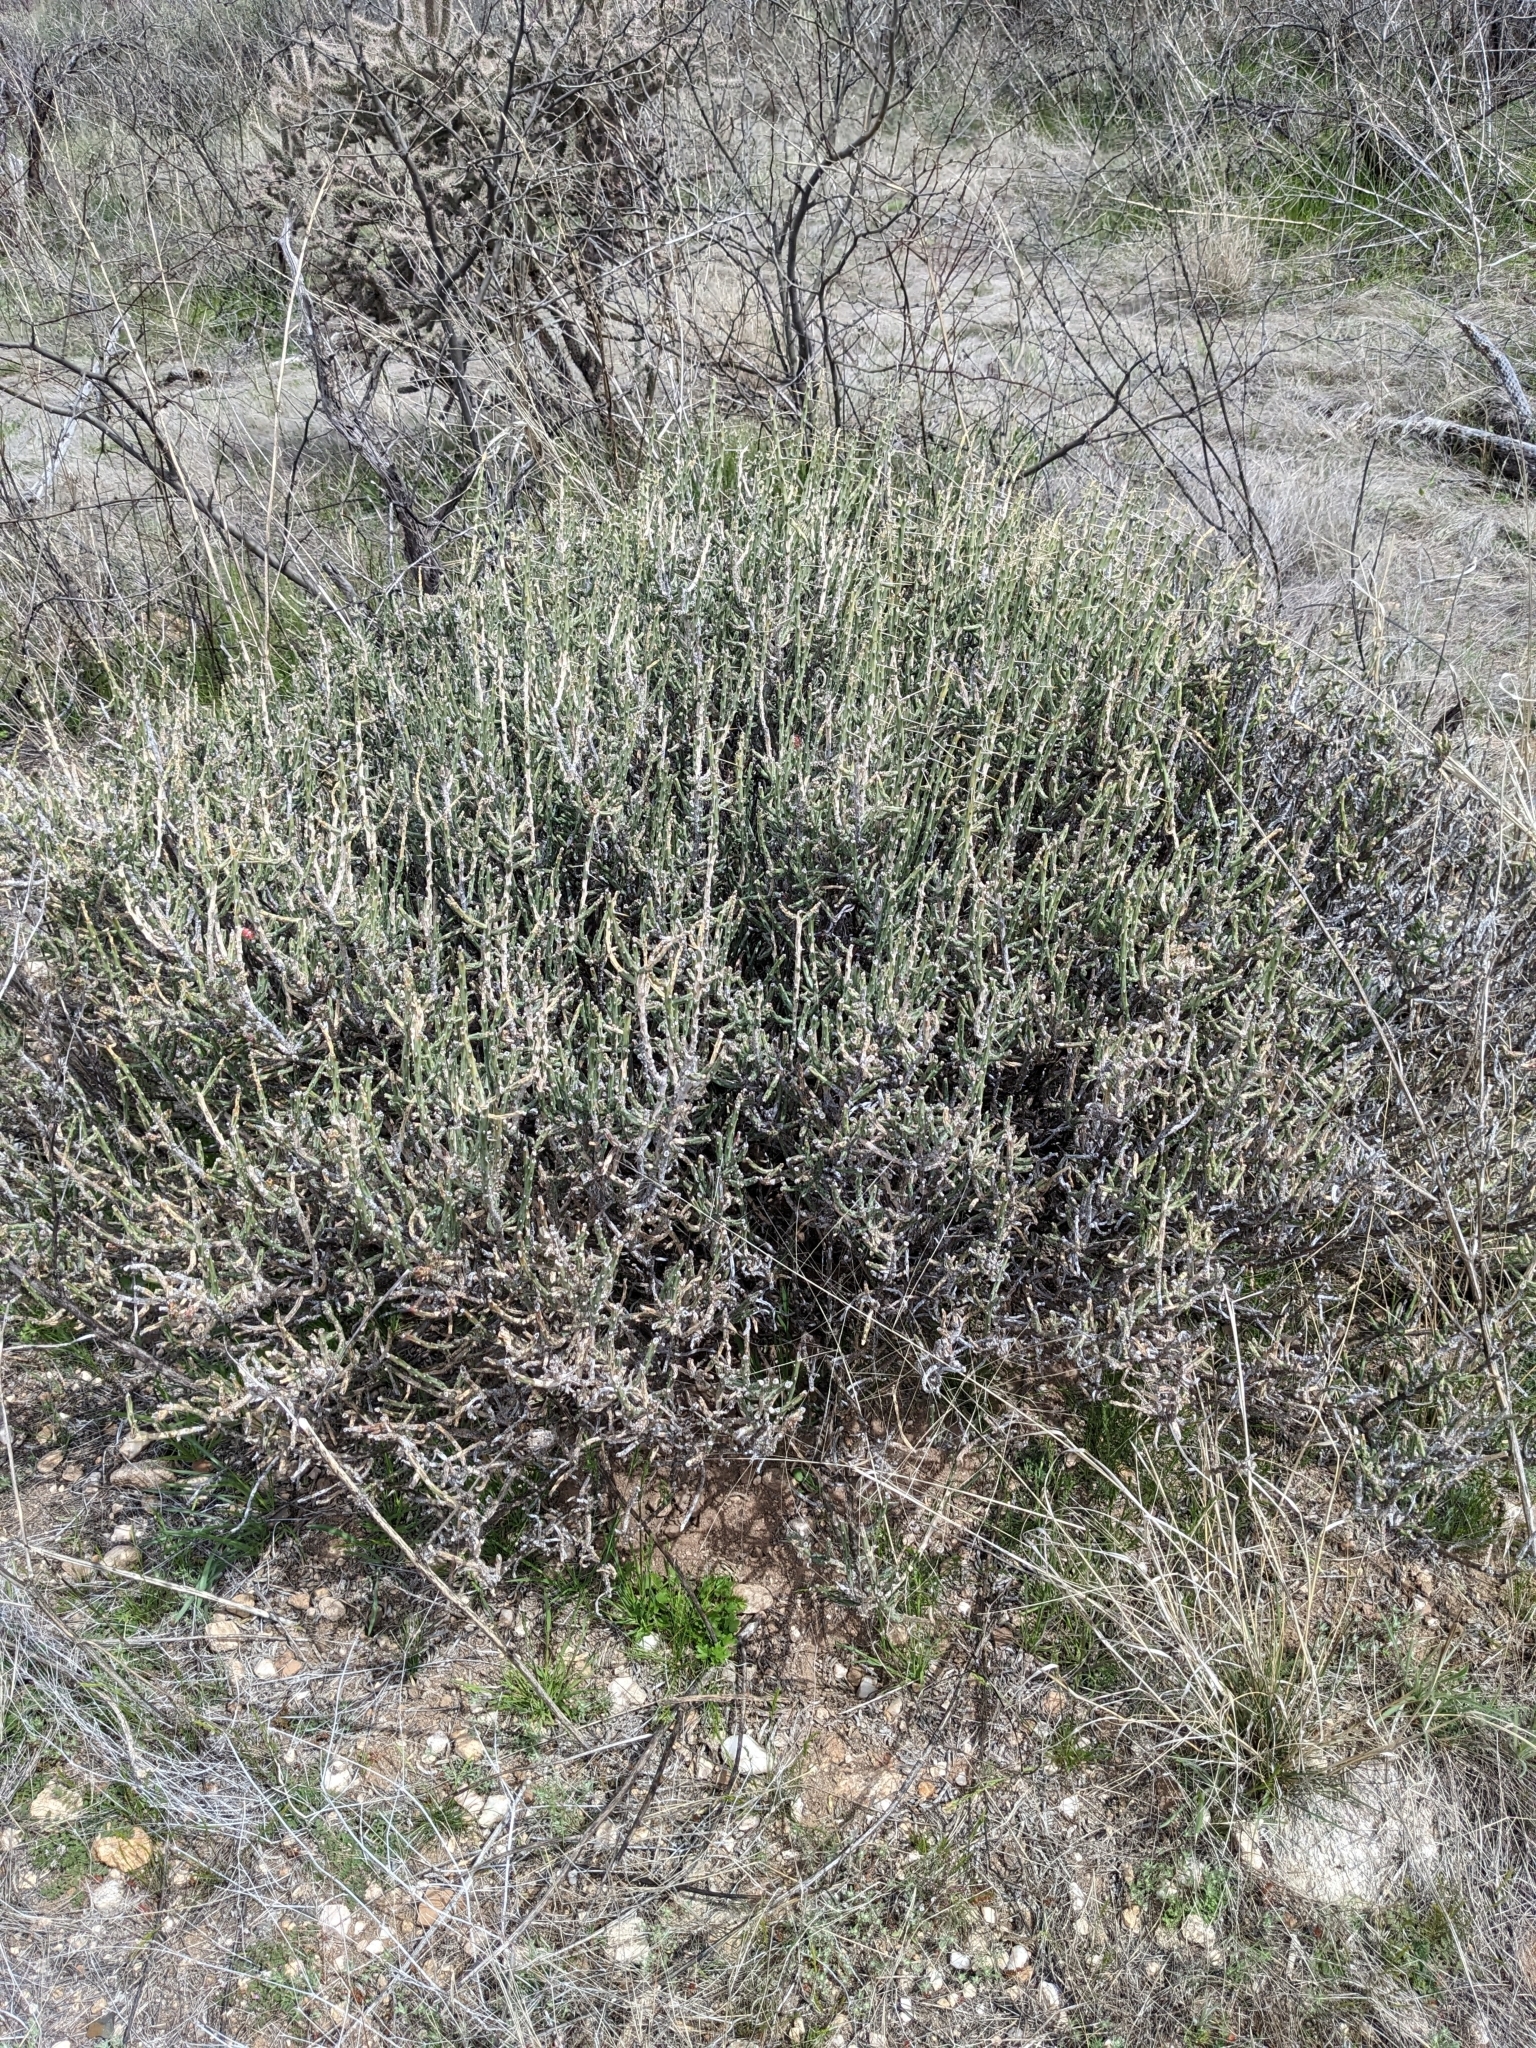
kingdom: Plantae
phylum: Tracheophyta
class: Magnoliopsida
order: Caryophyllales
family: Cactaceae
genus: Cylindropuntia
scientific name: Cylindropuntia leptocaulis
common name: Christmas cactus
